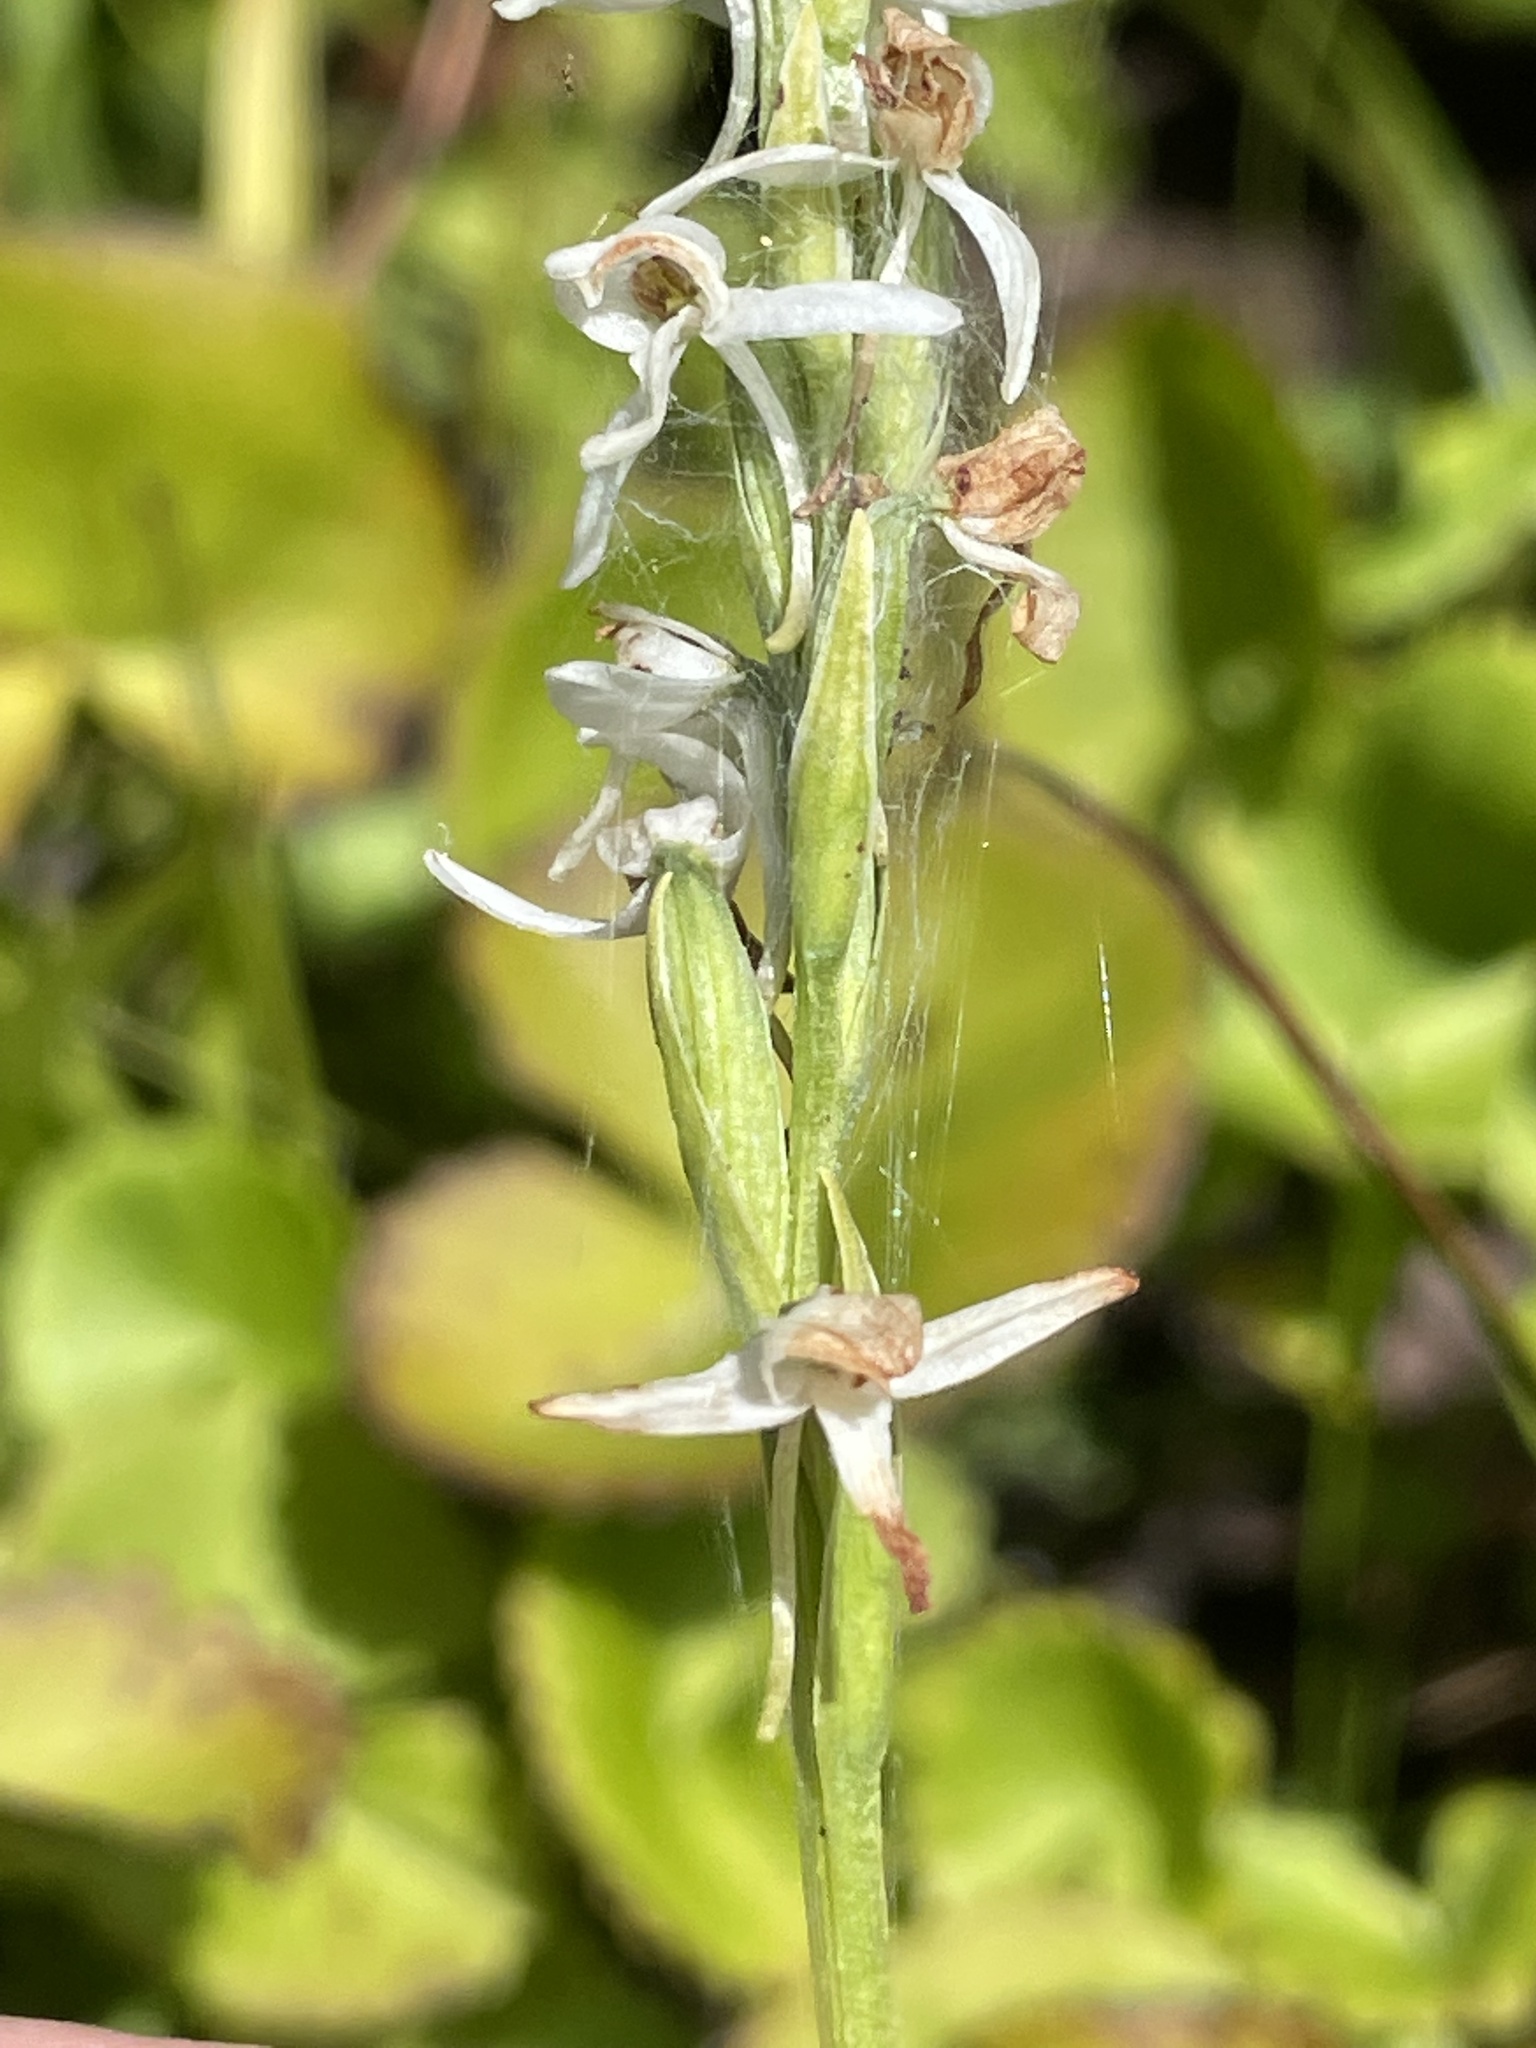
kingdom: Plantae
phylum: Tracheophyta
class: Liliopsida
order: Asparagales
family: Orchidaceae
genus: Platanthera
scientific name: Platanthera dilatata
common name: Bog candles
